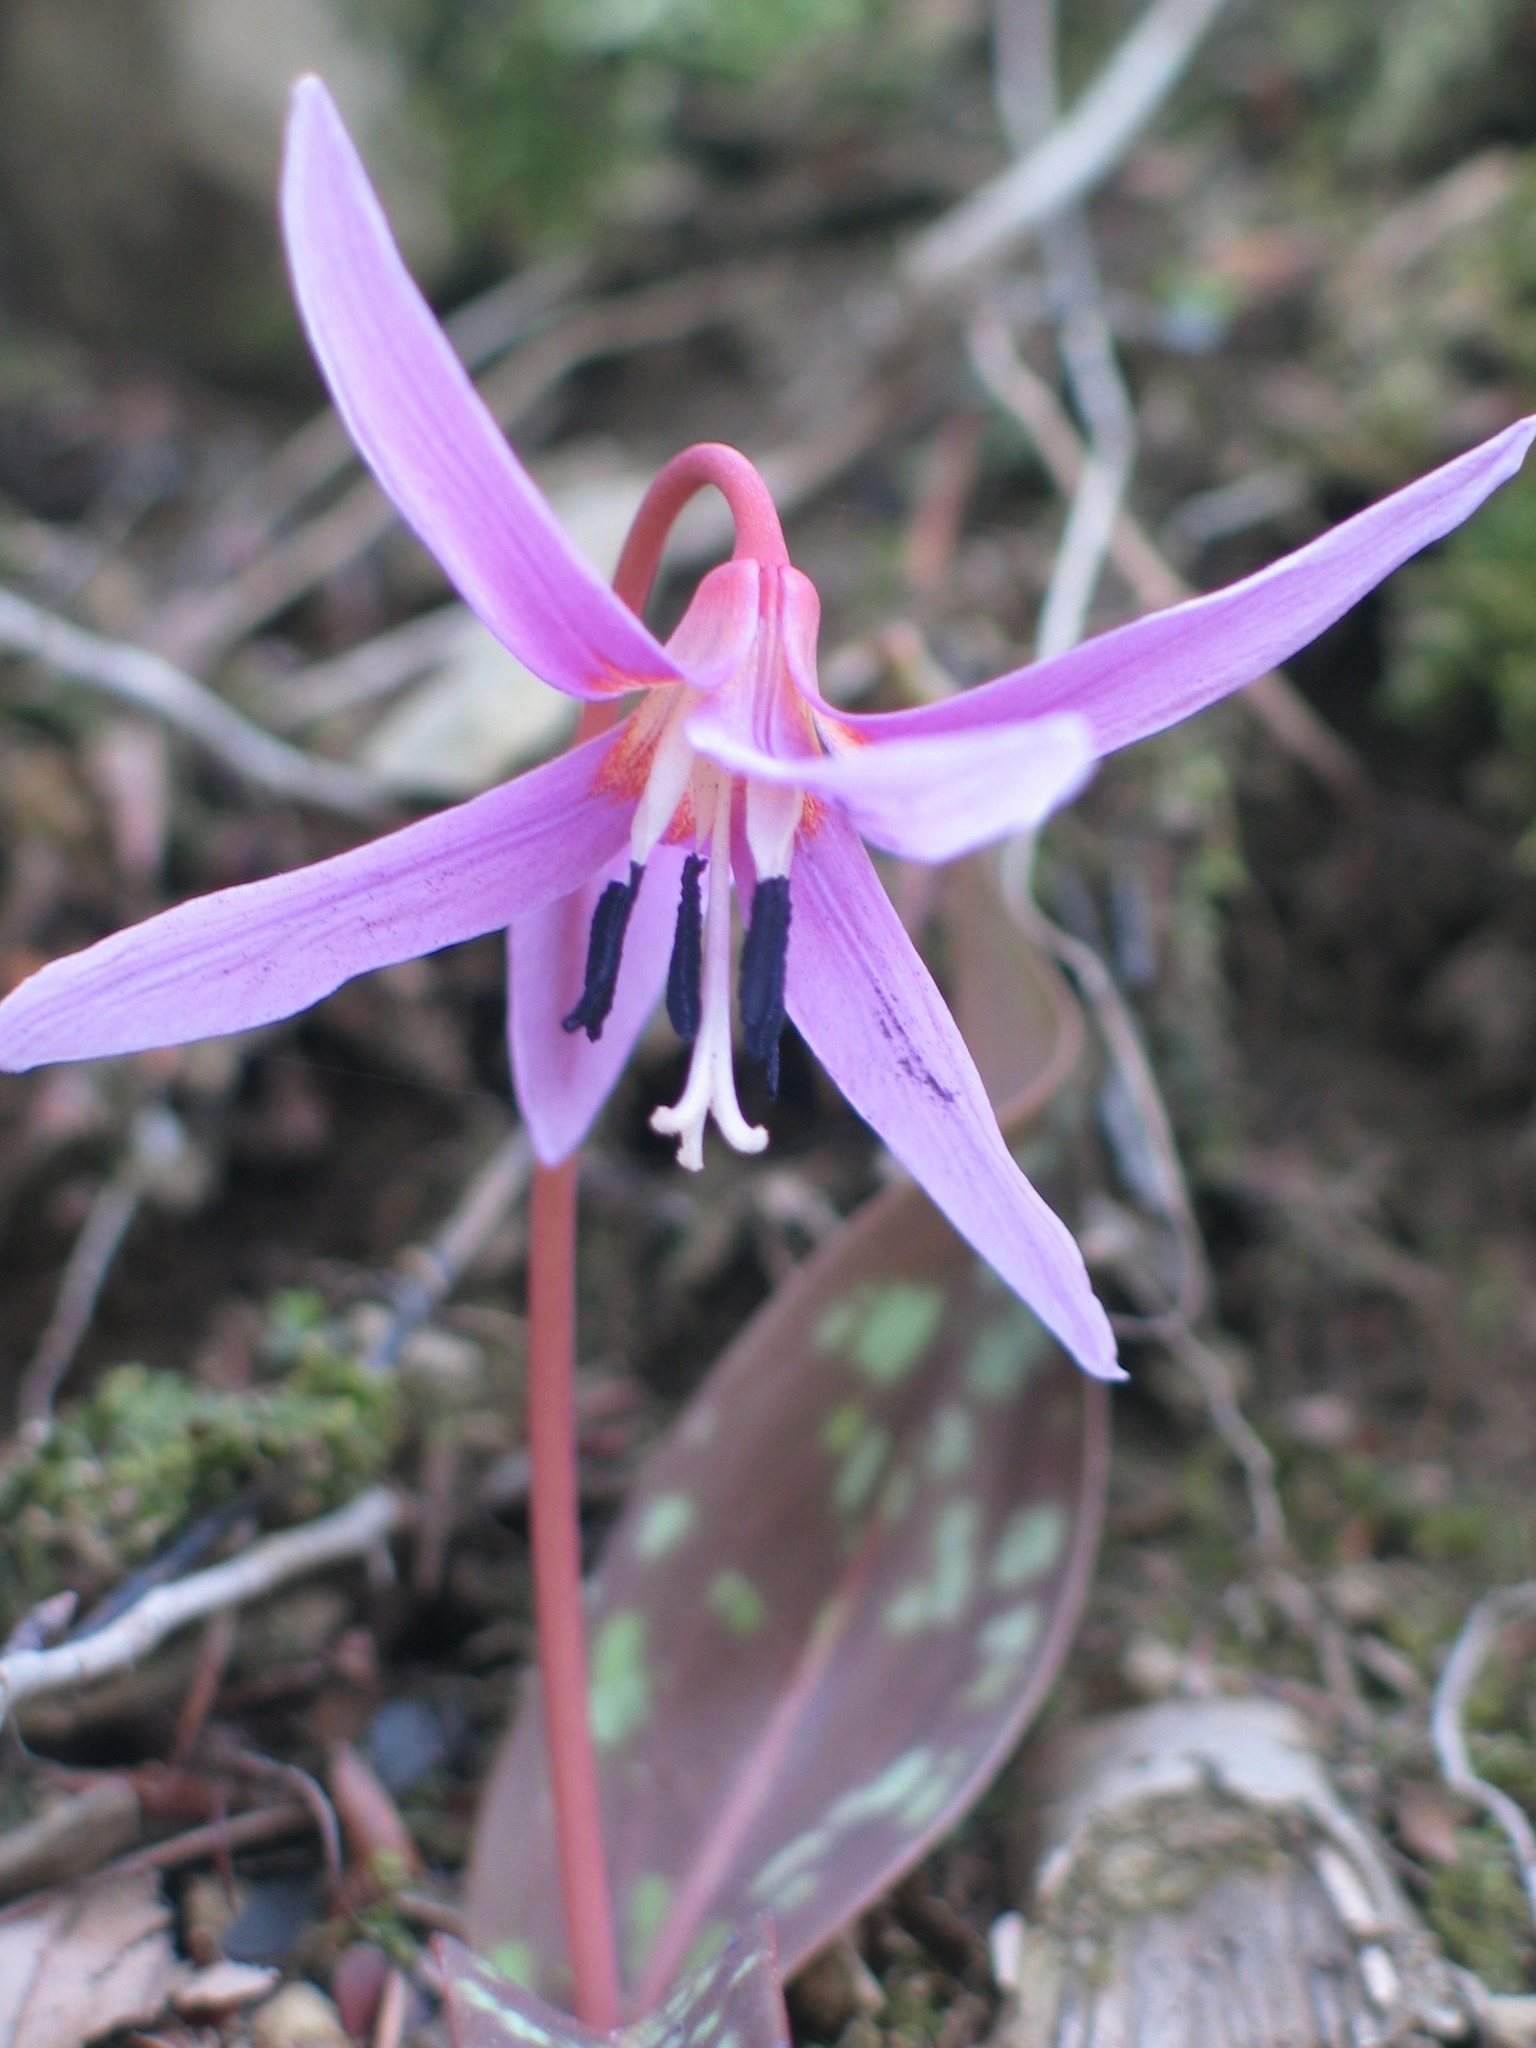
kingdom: Plantae
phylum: Tracheophyta
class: Liliopsida
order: Liliales
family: Liliaceae
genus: Erythronium
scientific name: Erythronium dens-canis
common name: Dog's-tooth-violet
